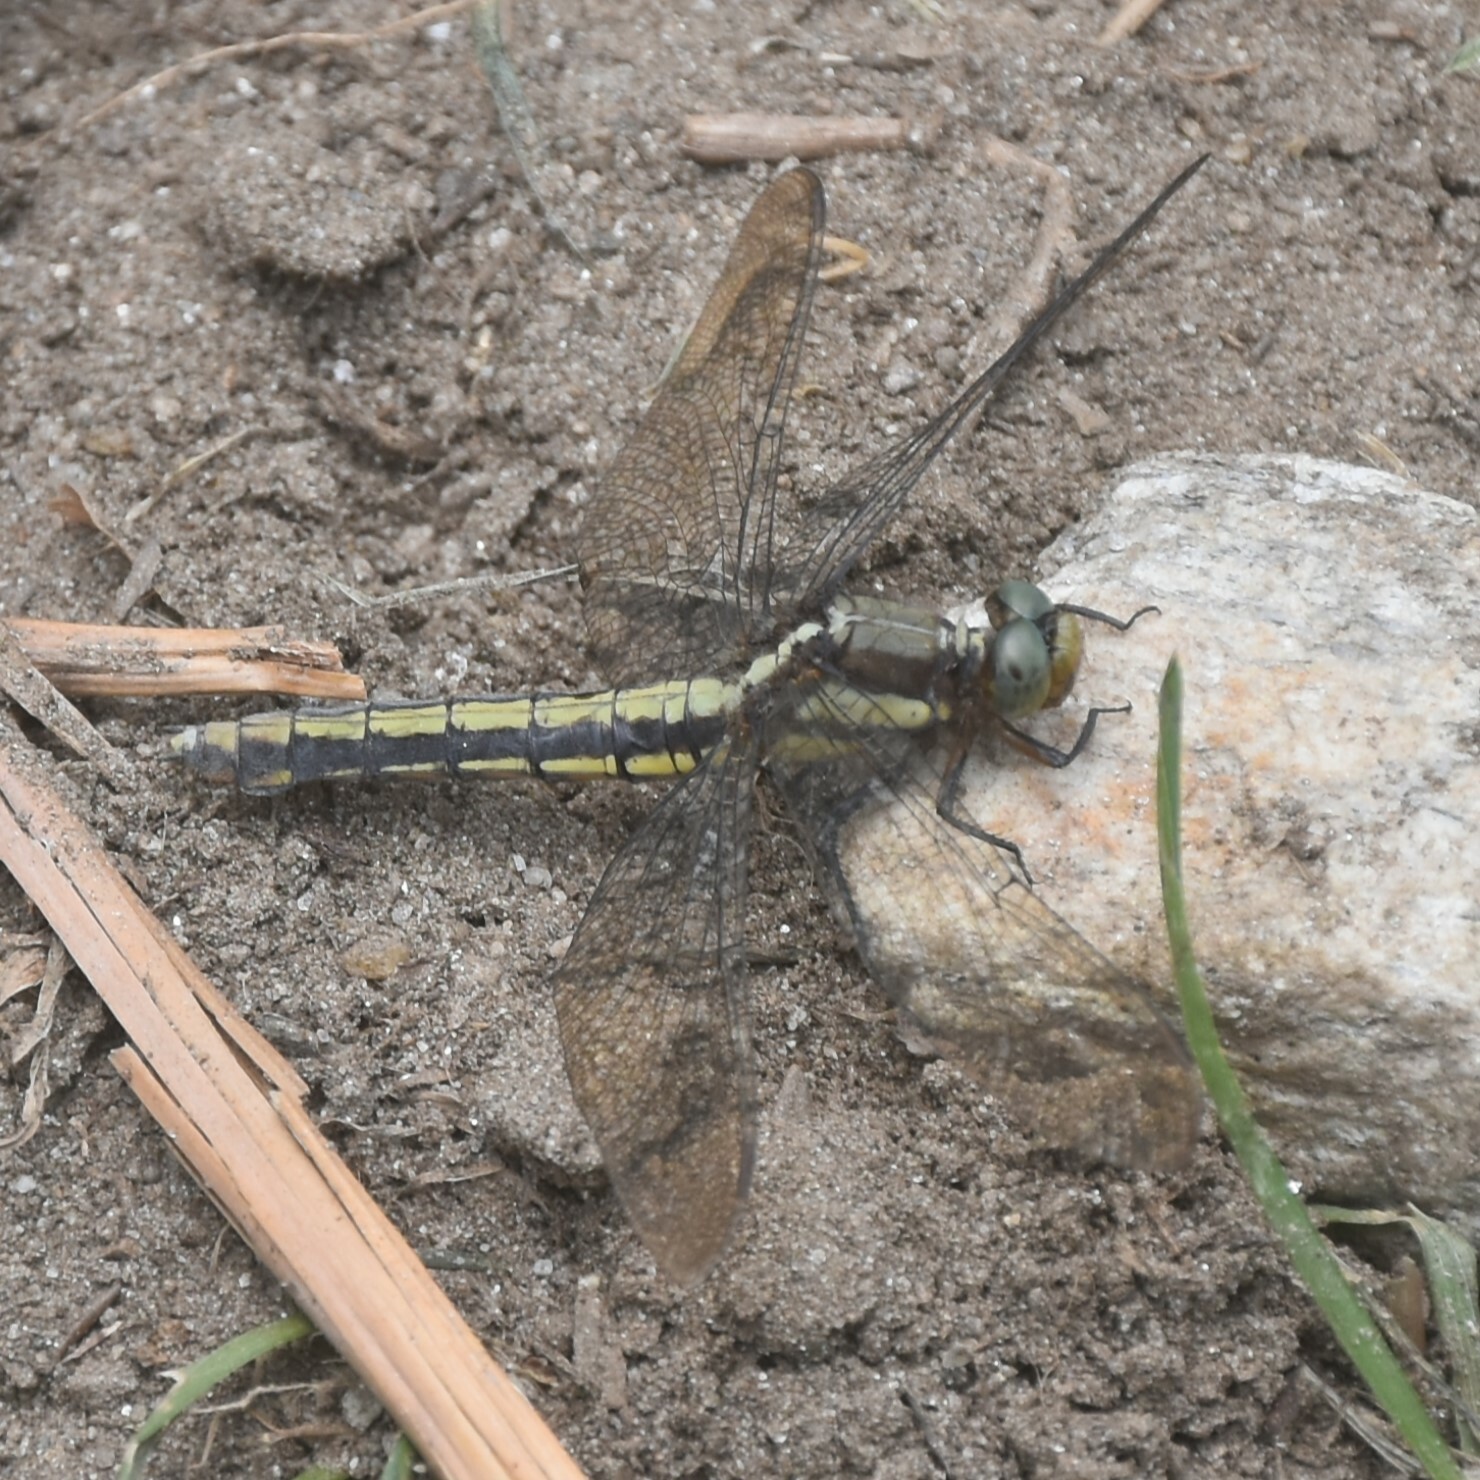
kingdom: Animalia
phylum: Arthropoda
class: Insecta
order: Odonata
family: Libellulidae
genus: Orthetrum
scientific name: Orthetrum internum
